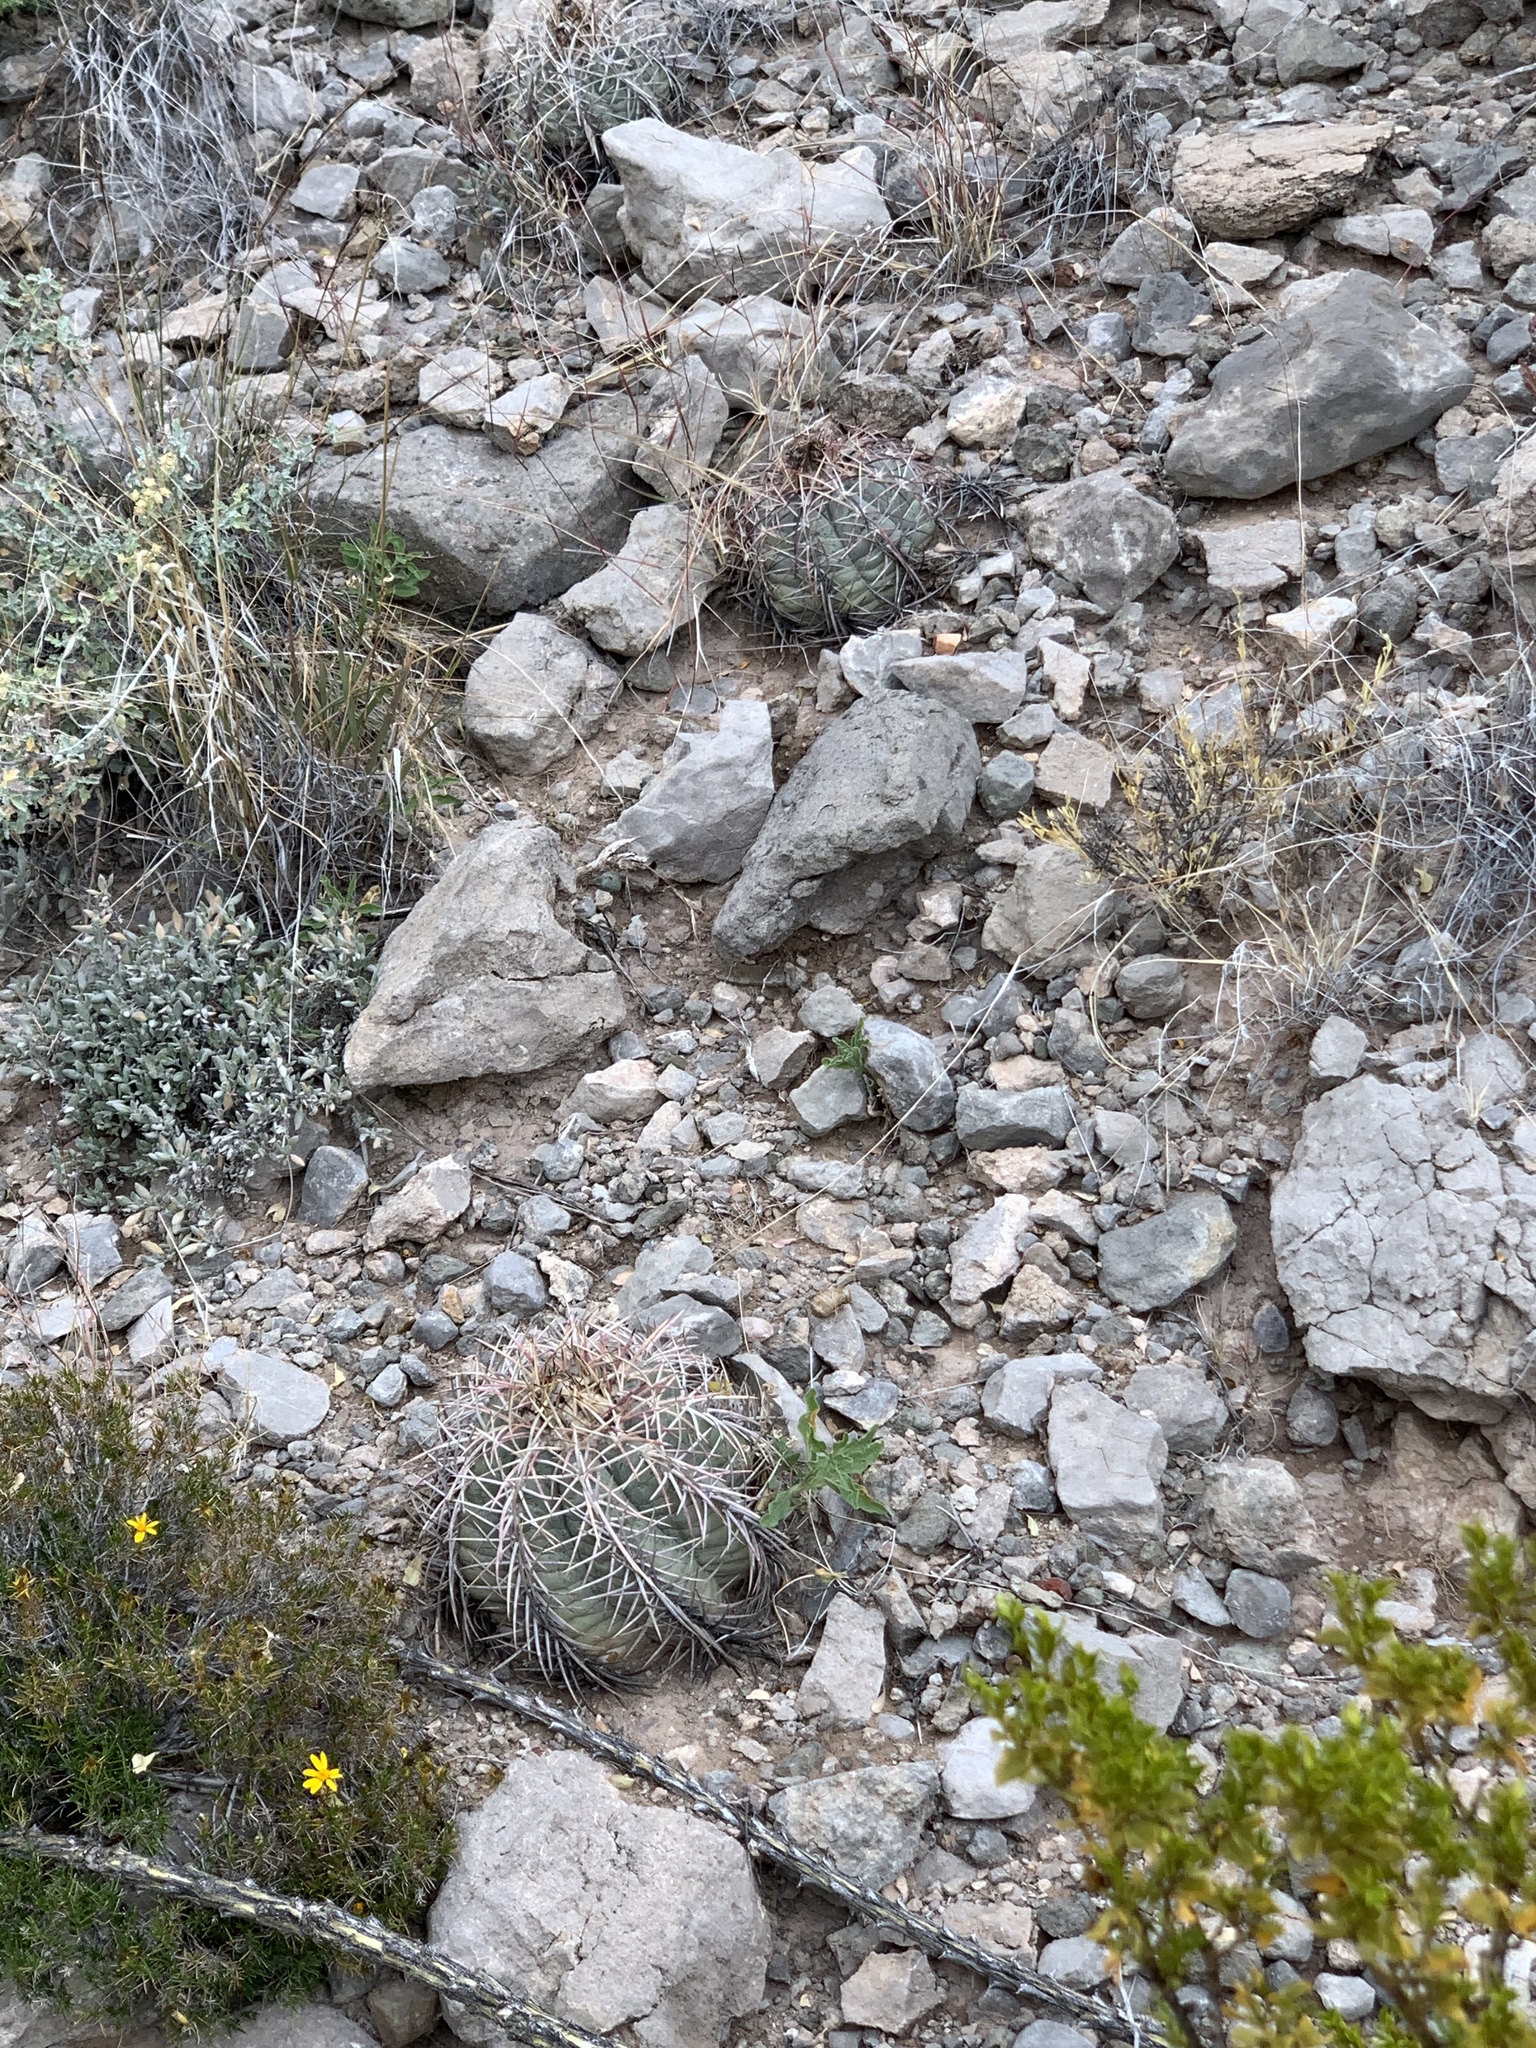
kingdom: Plantae
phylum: Tracheophyta
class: Magnoliopsida
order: Caryophyllales
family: Cactaceae
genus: Echinocactus
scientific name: Echinocactus horizonthalonius
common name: Devilshead
